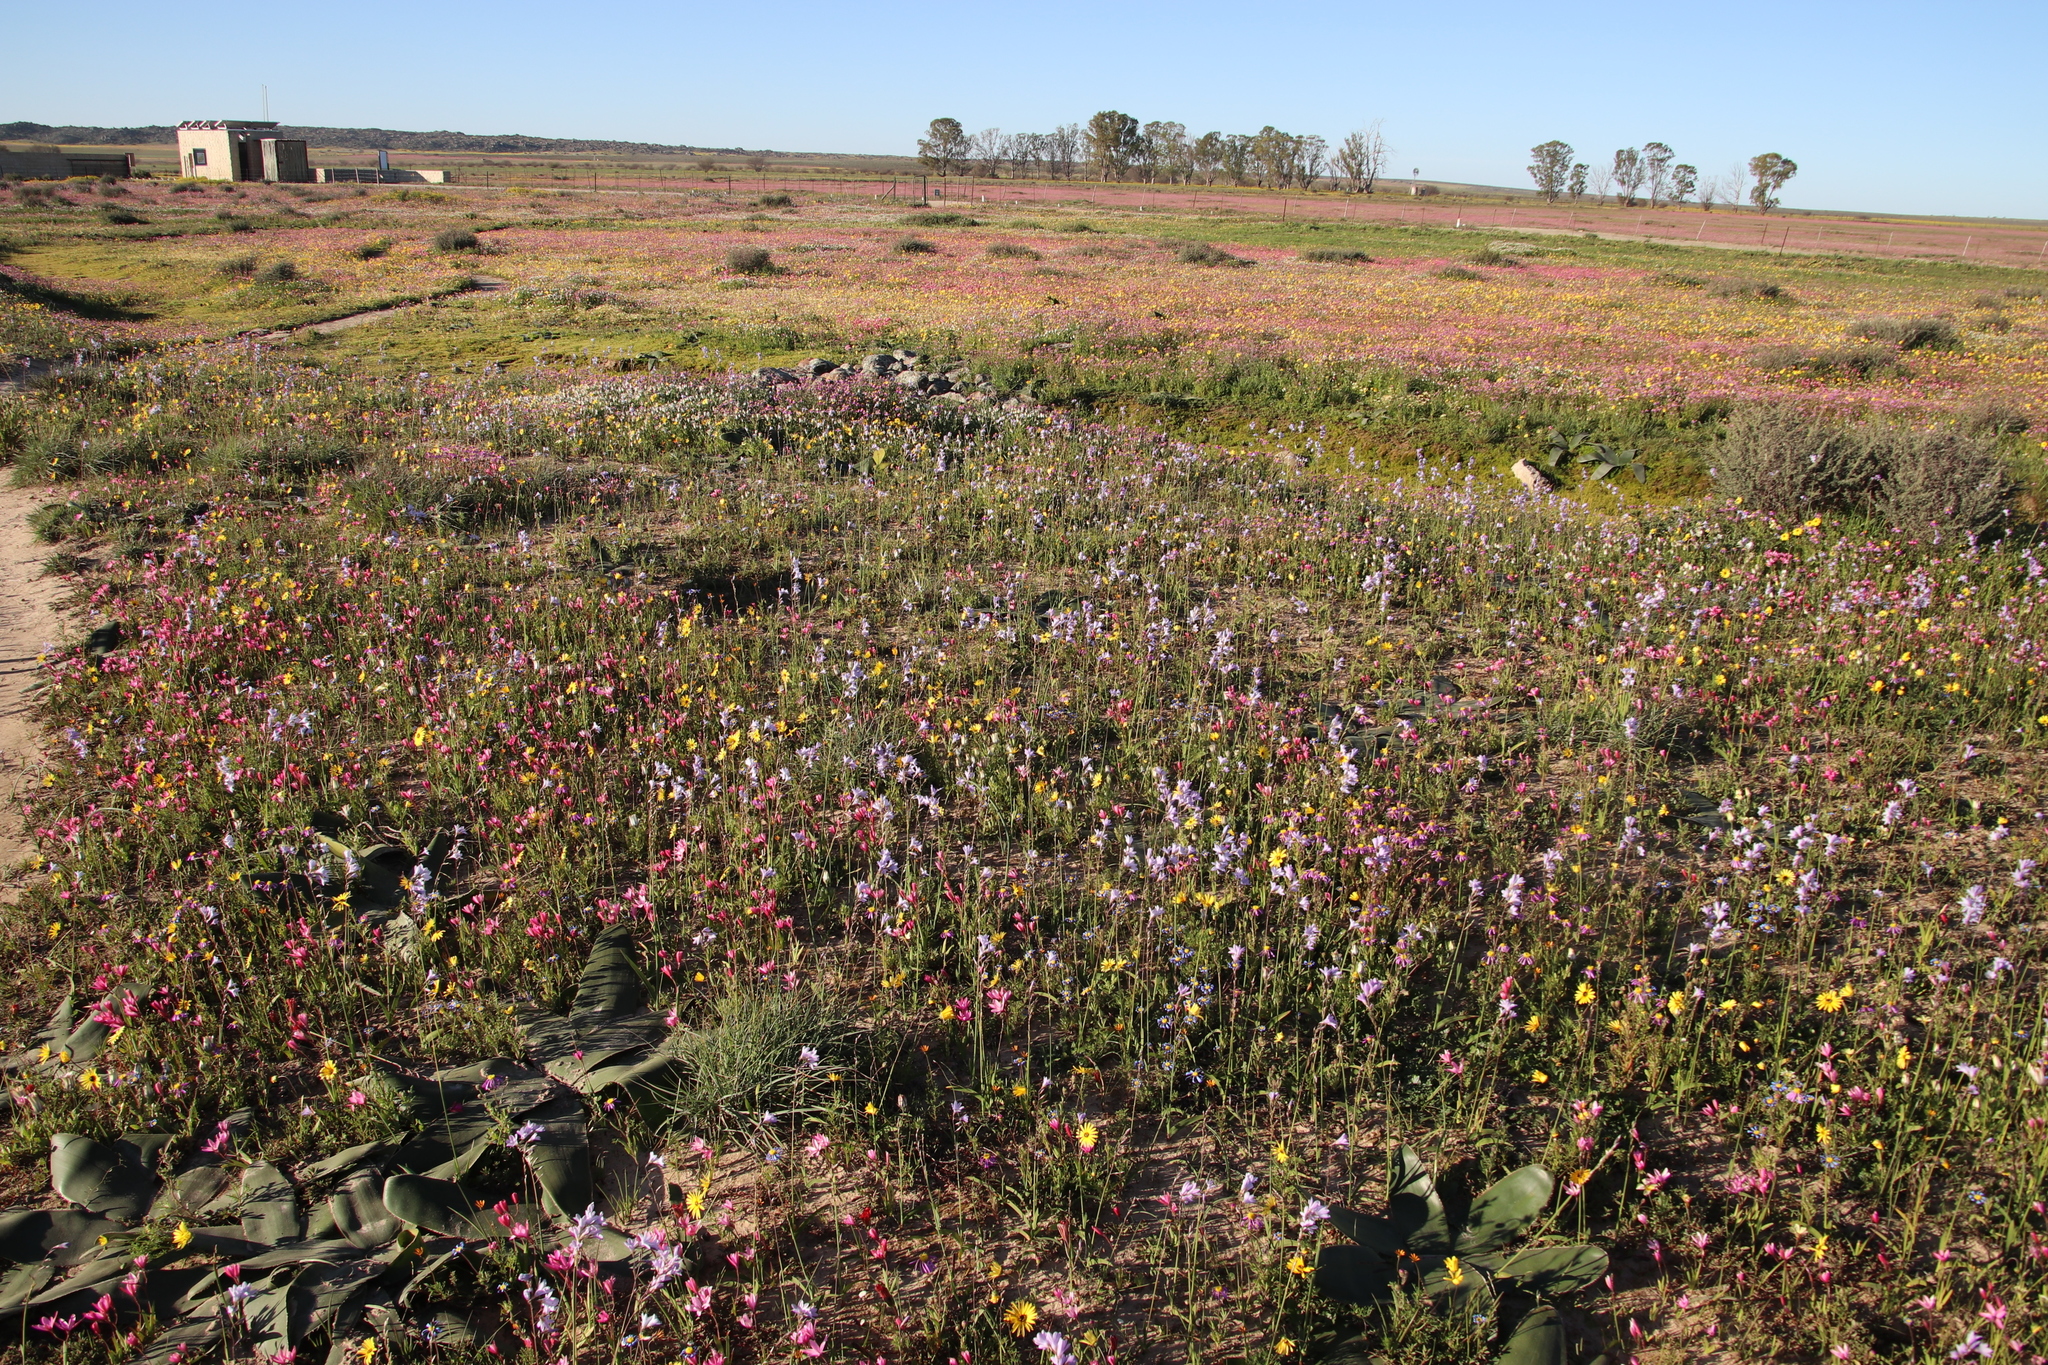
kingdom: Plantae
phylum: Tracheophyta
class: Liliopsida
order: Asparagales
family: Iridaceae
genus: Ixia
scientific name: Ixia rapunculoides
